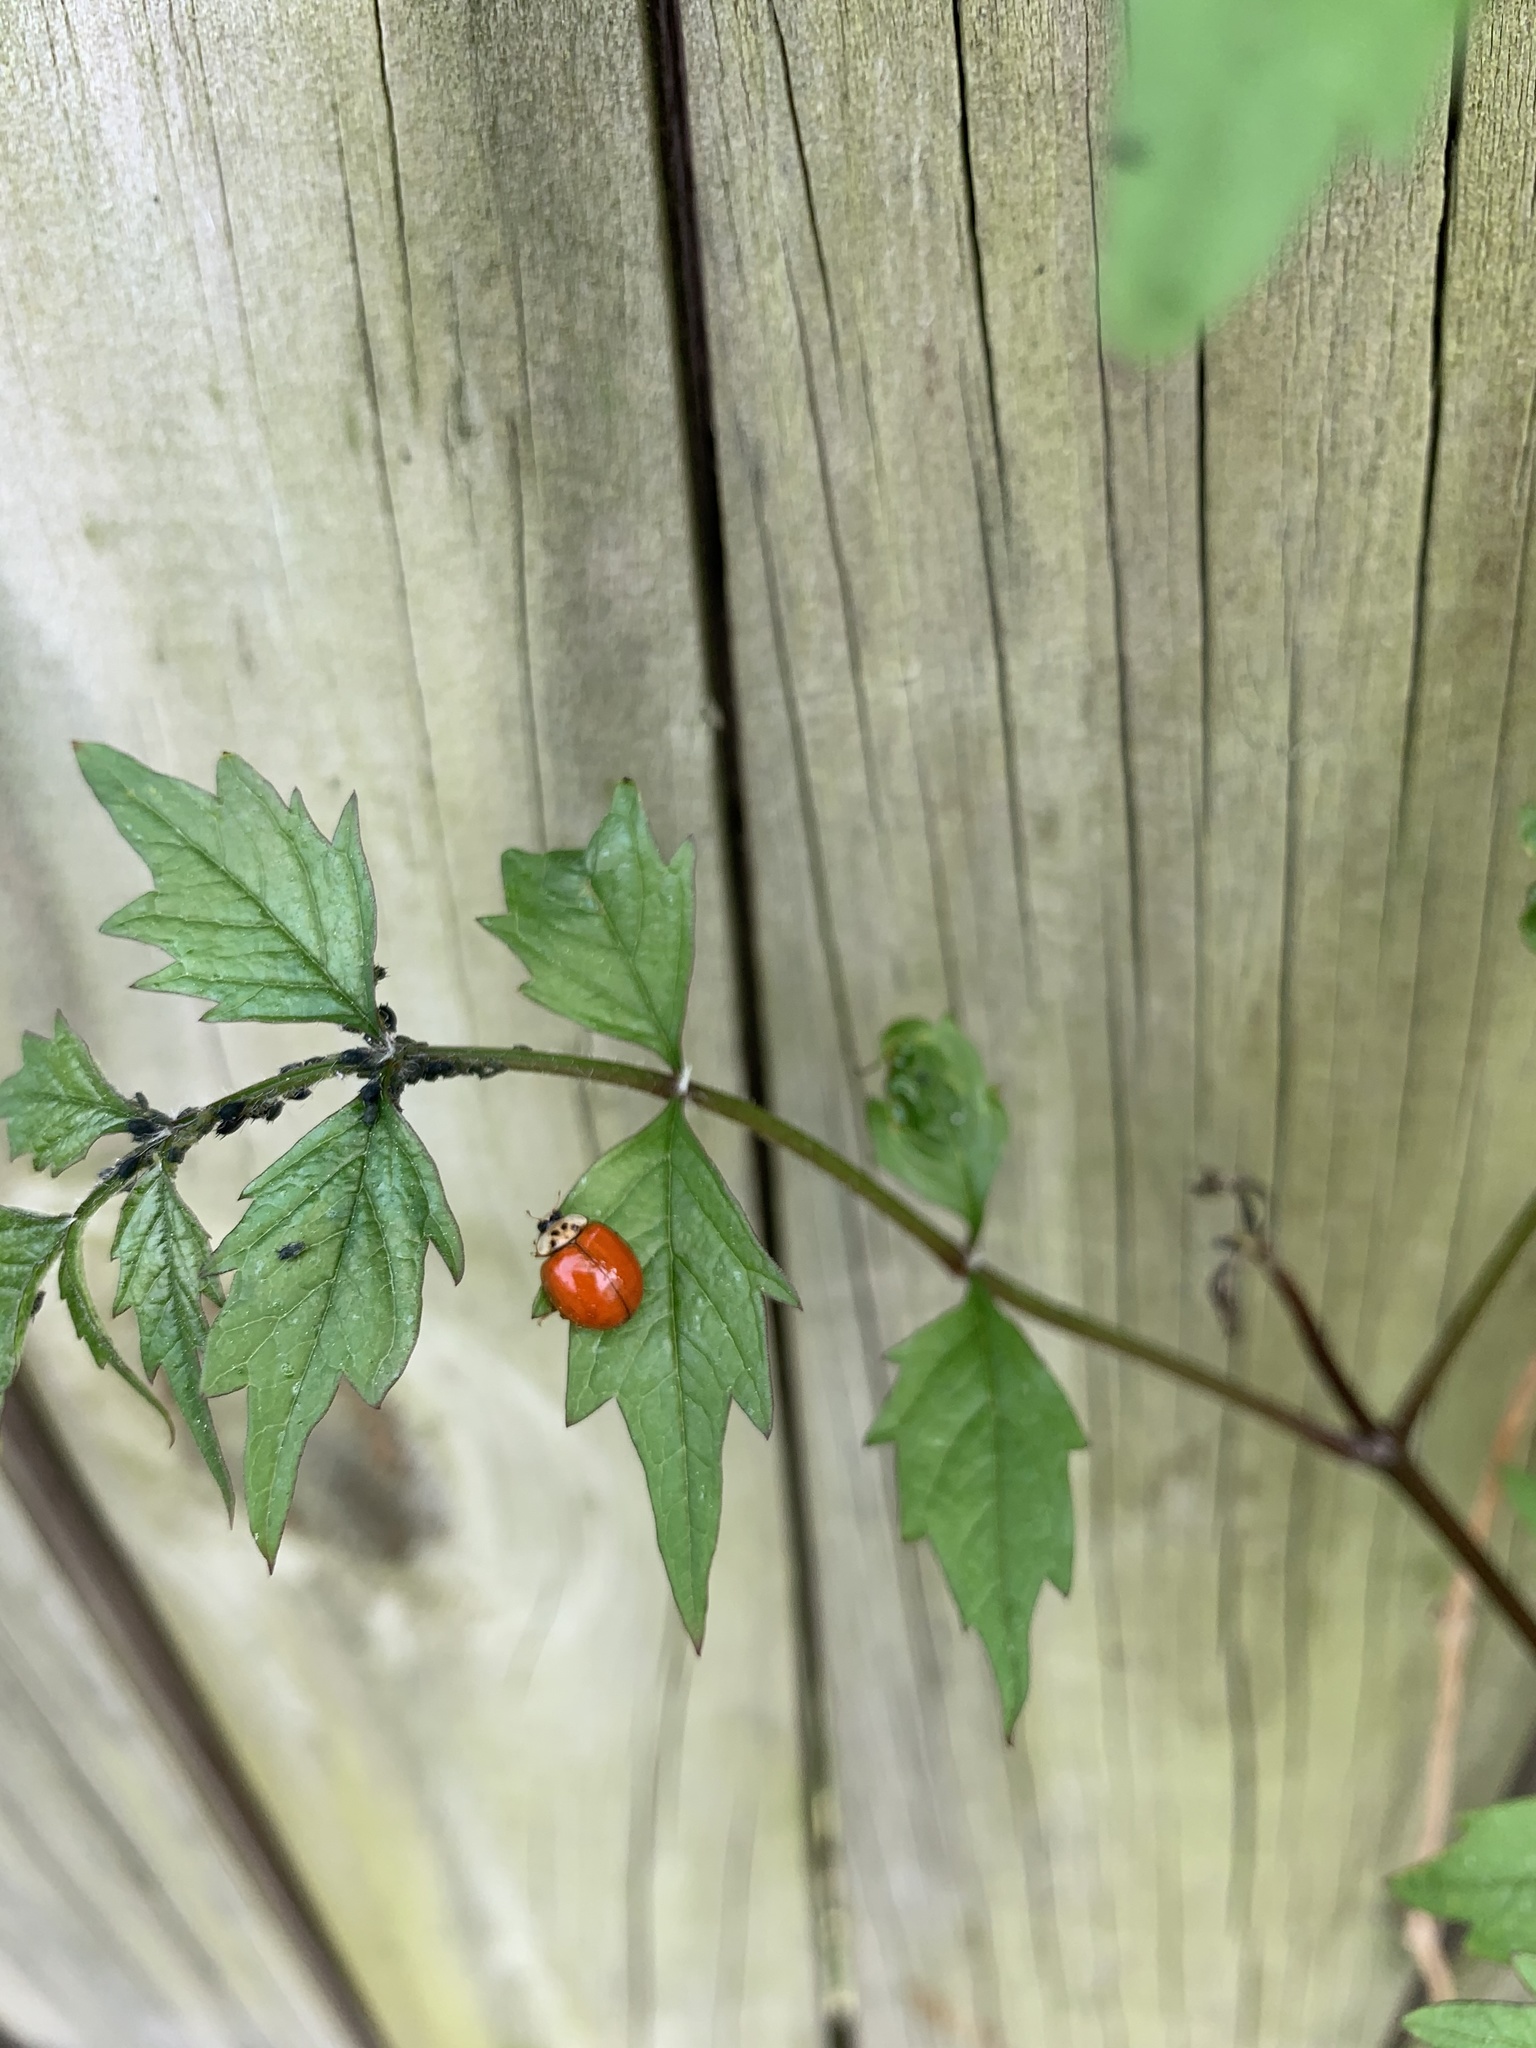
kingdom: Animalia
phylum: Arthropoda
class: Insecta
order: Coleoptera
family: Coccinellidae
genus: Harmonia
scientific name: Harmonia axyridis
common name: Harlequin ladybird
